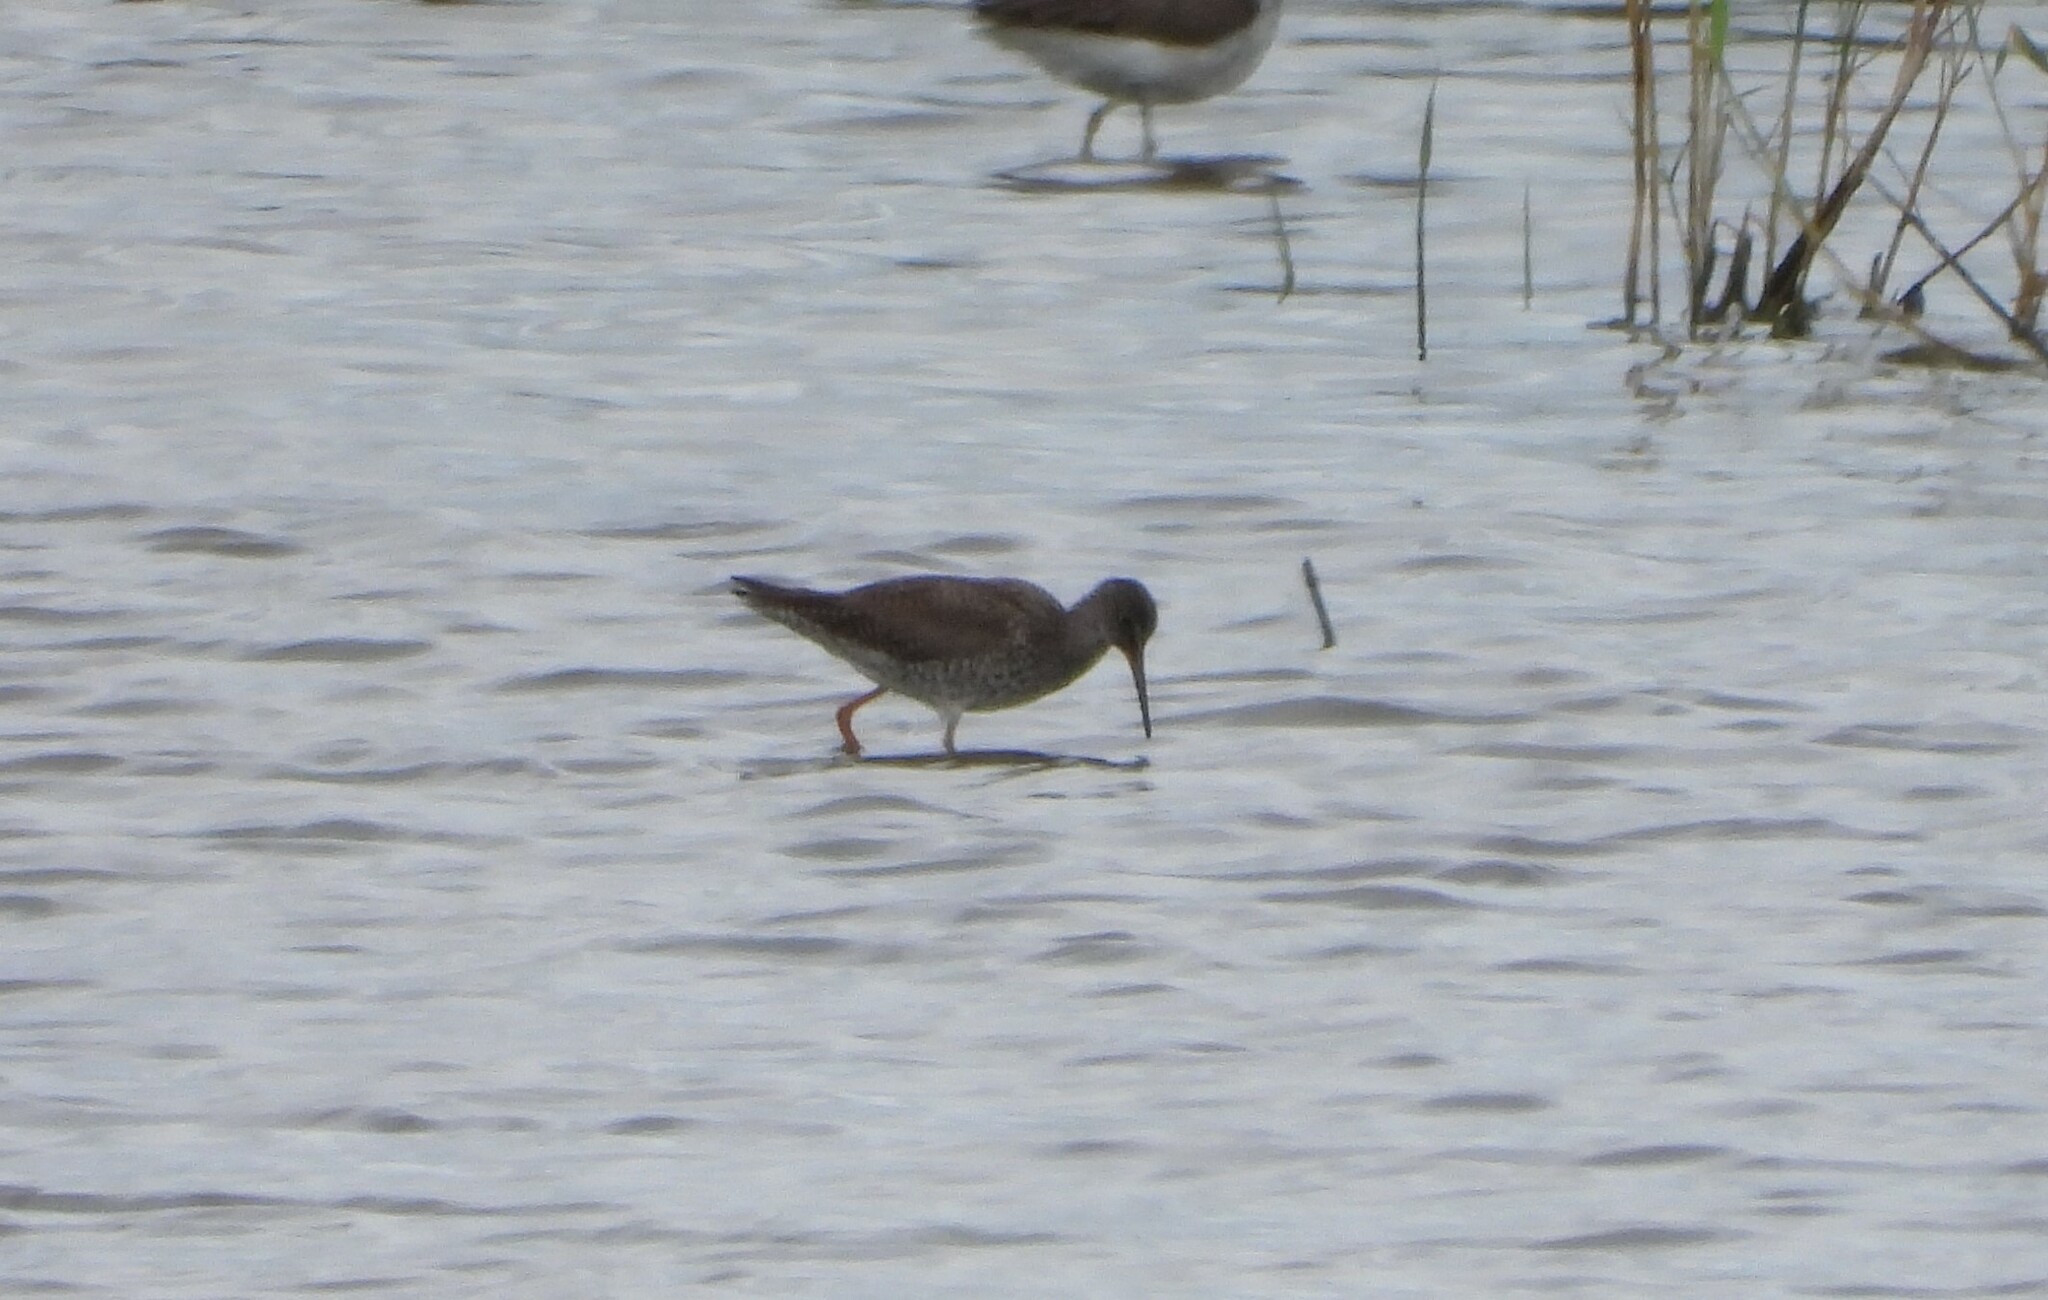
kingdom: Animalia
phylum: Chordata
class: Aves
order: Charadriiformes
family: Scolopacidae
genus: Tringa
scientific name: Tringa totanus
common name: Common redshank
